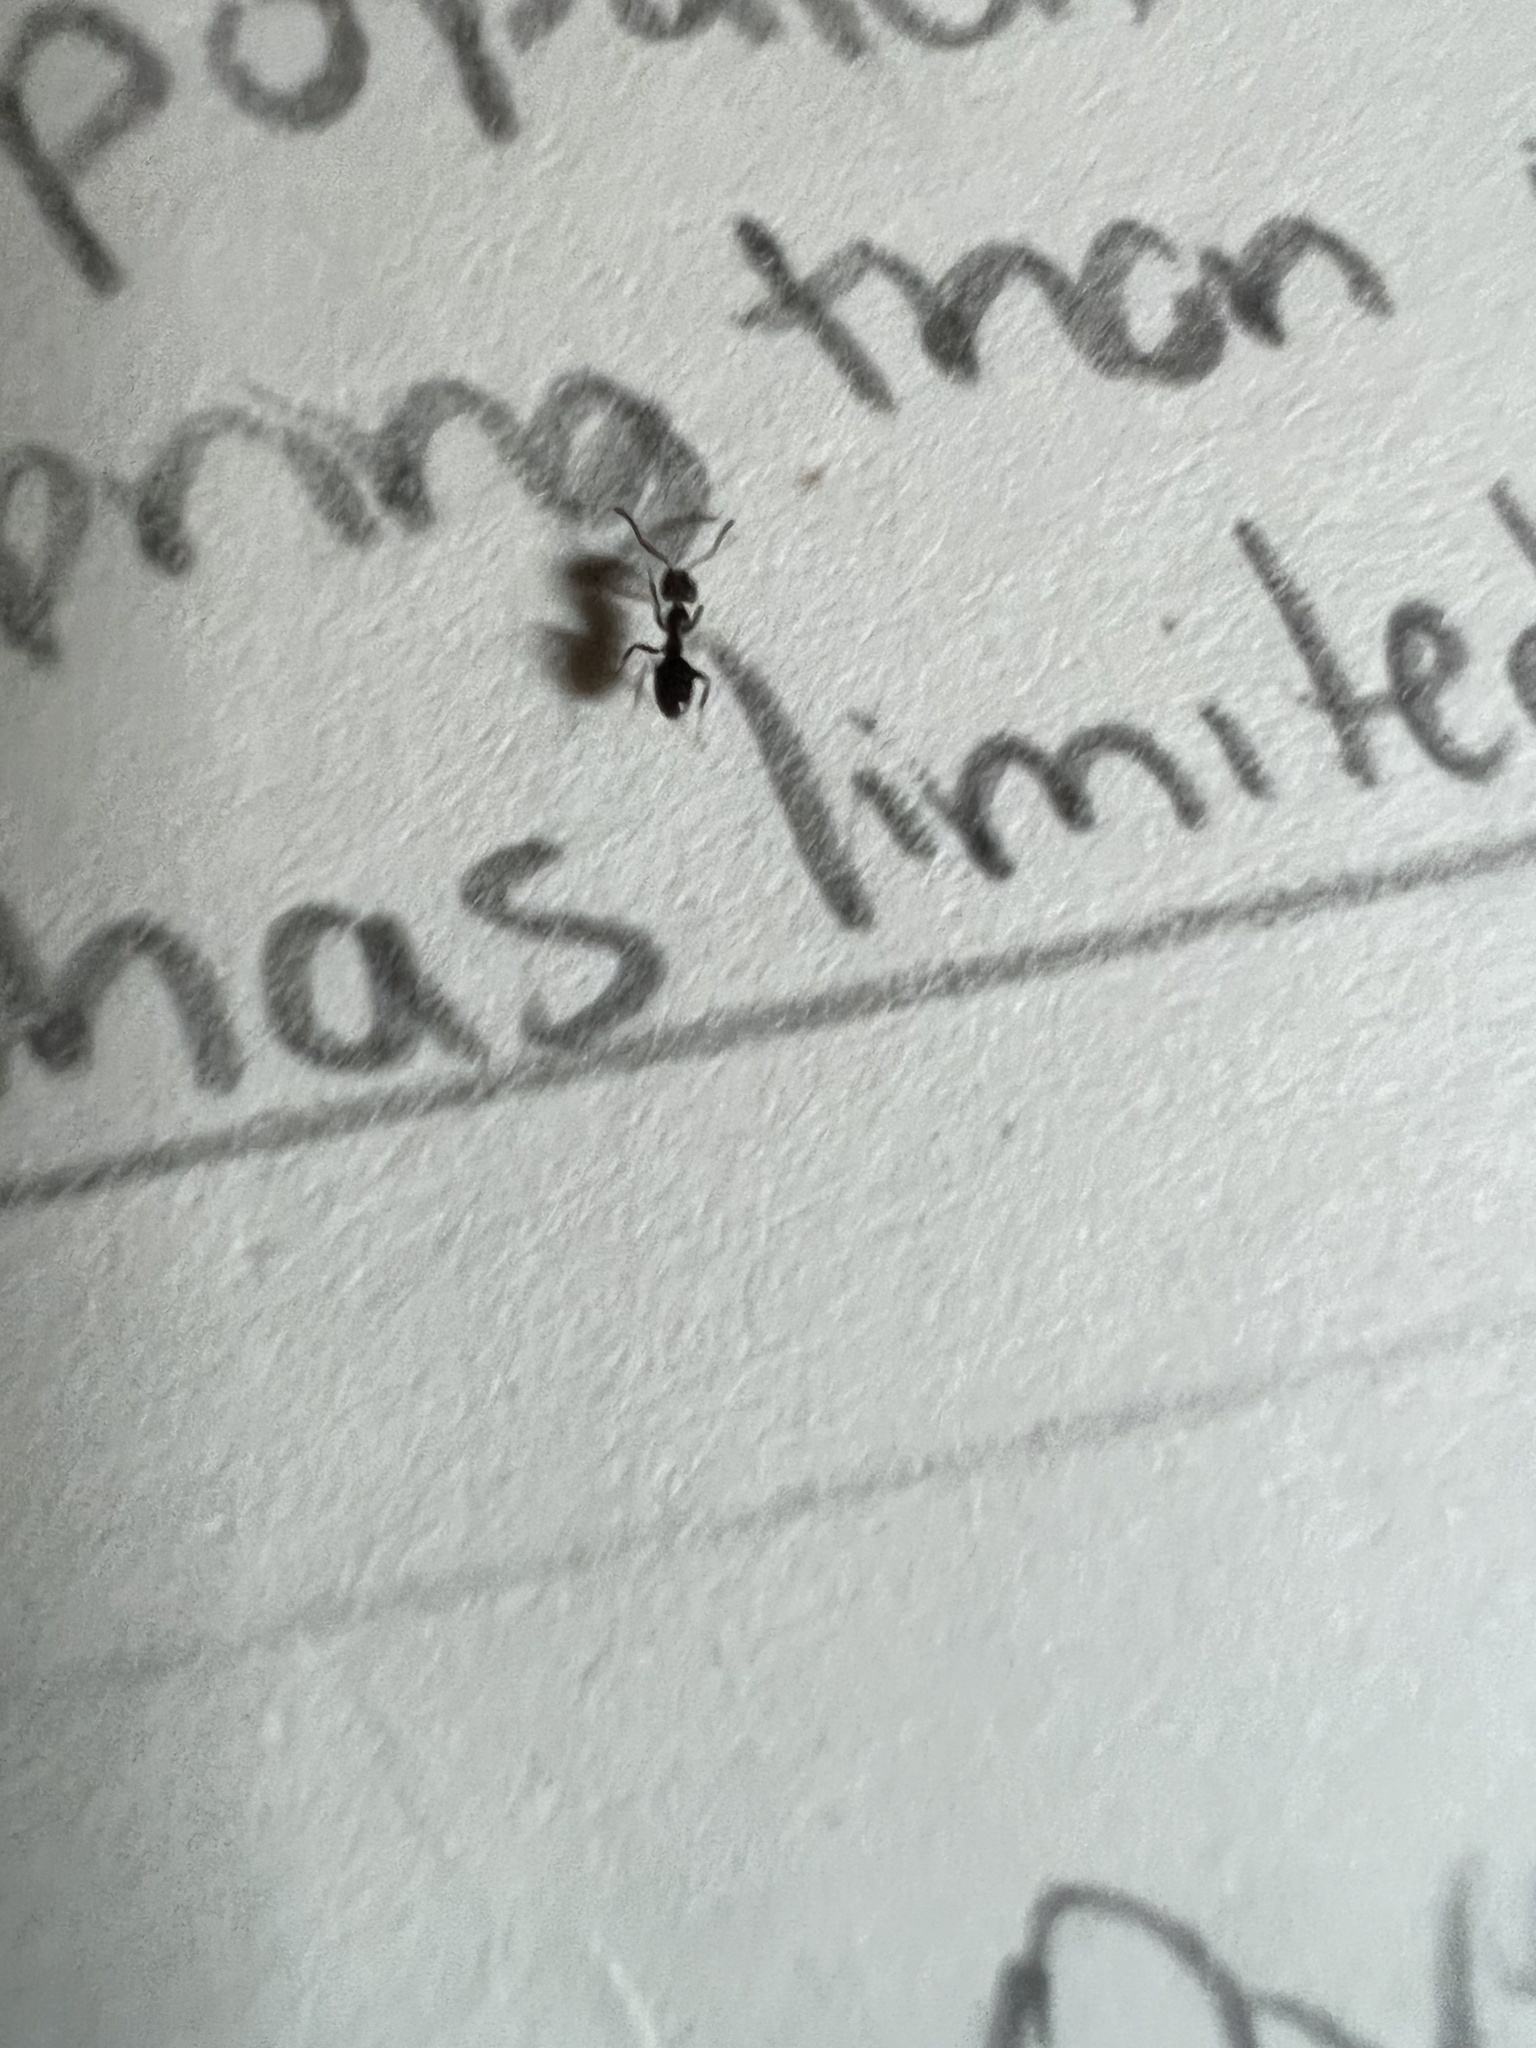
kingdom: Animalia
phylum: Arthropoda
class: Insecta
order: Hymenoptera
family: Formicidae
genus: Tapinoma
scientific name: Tapinoma sessile
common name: Odorous house ant
